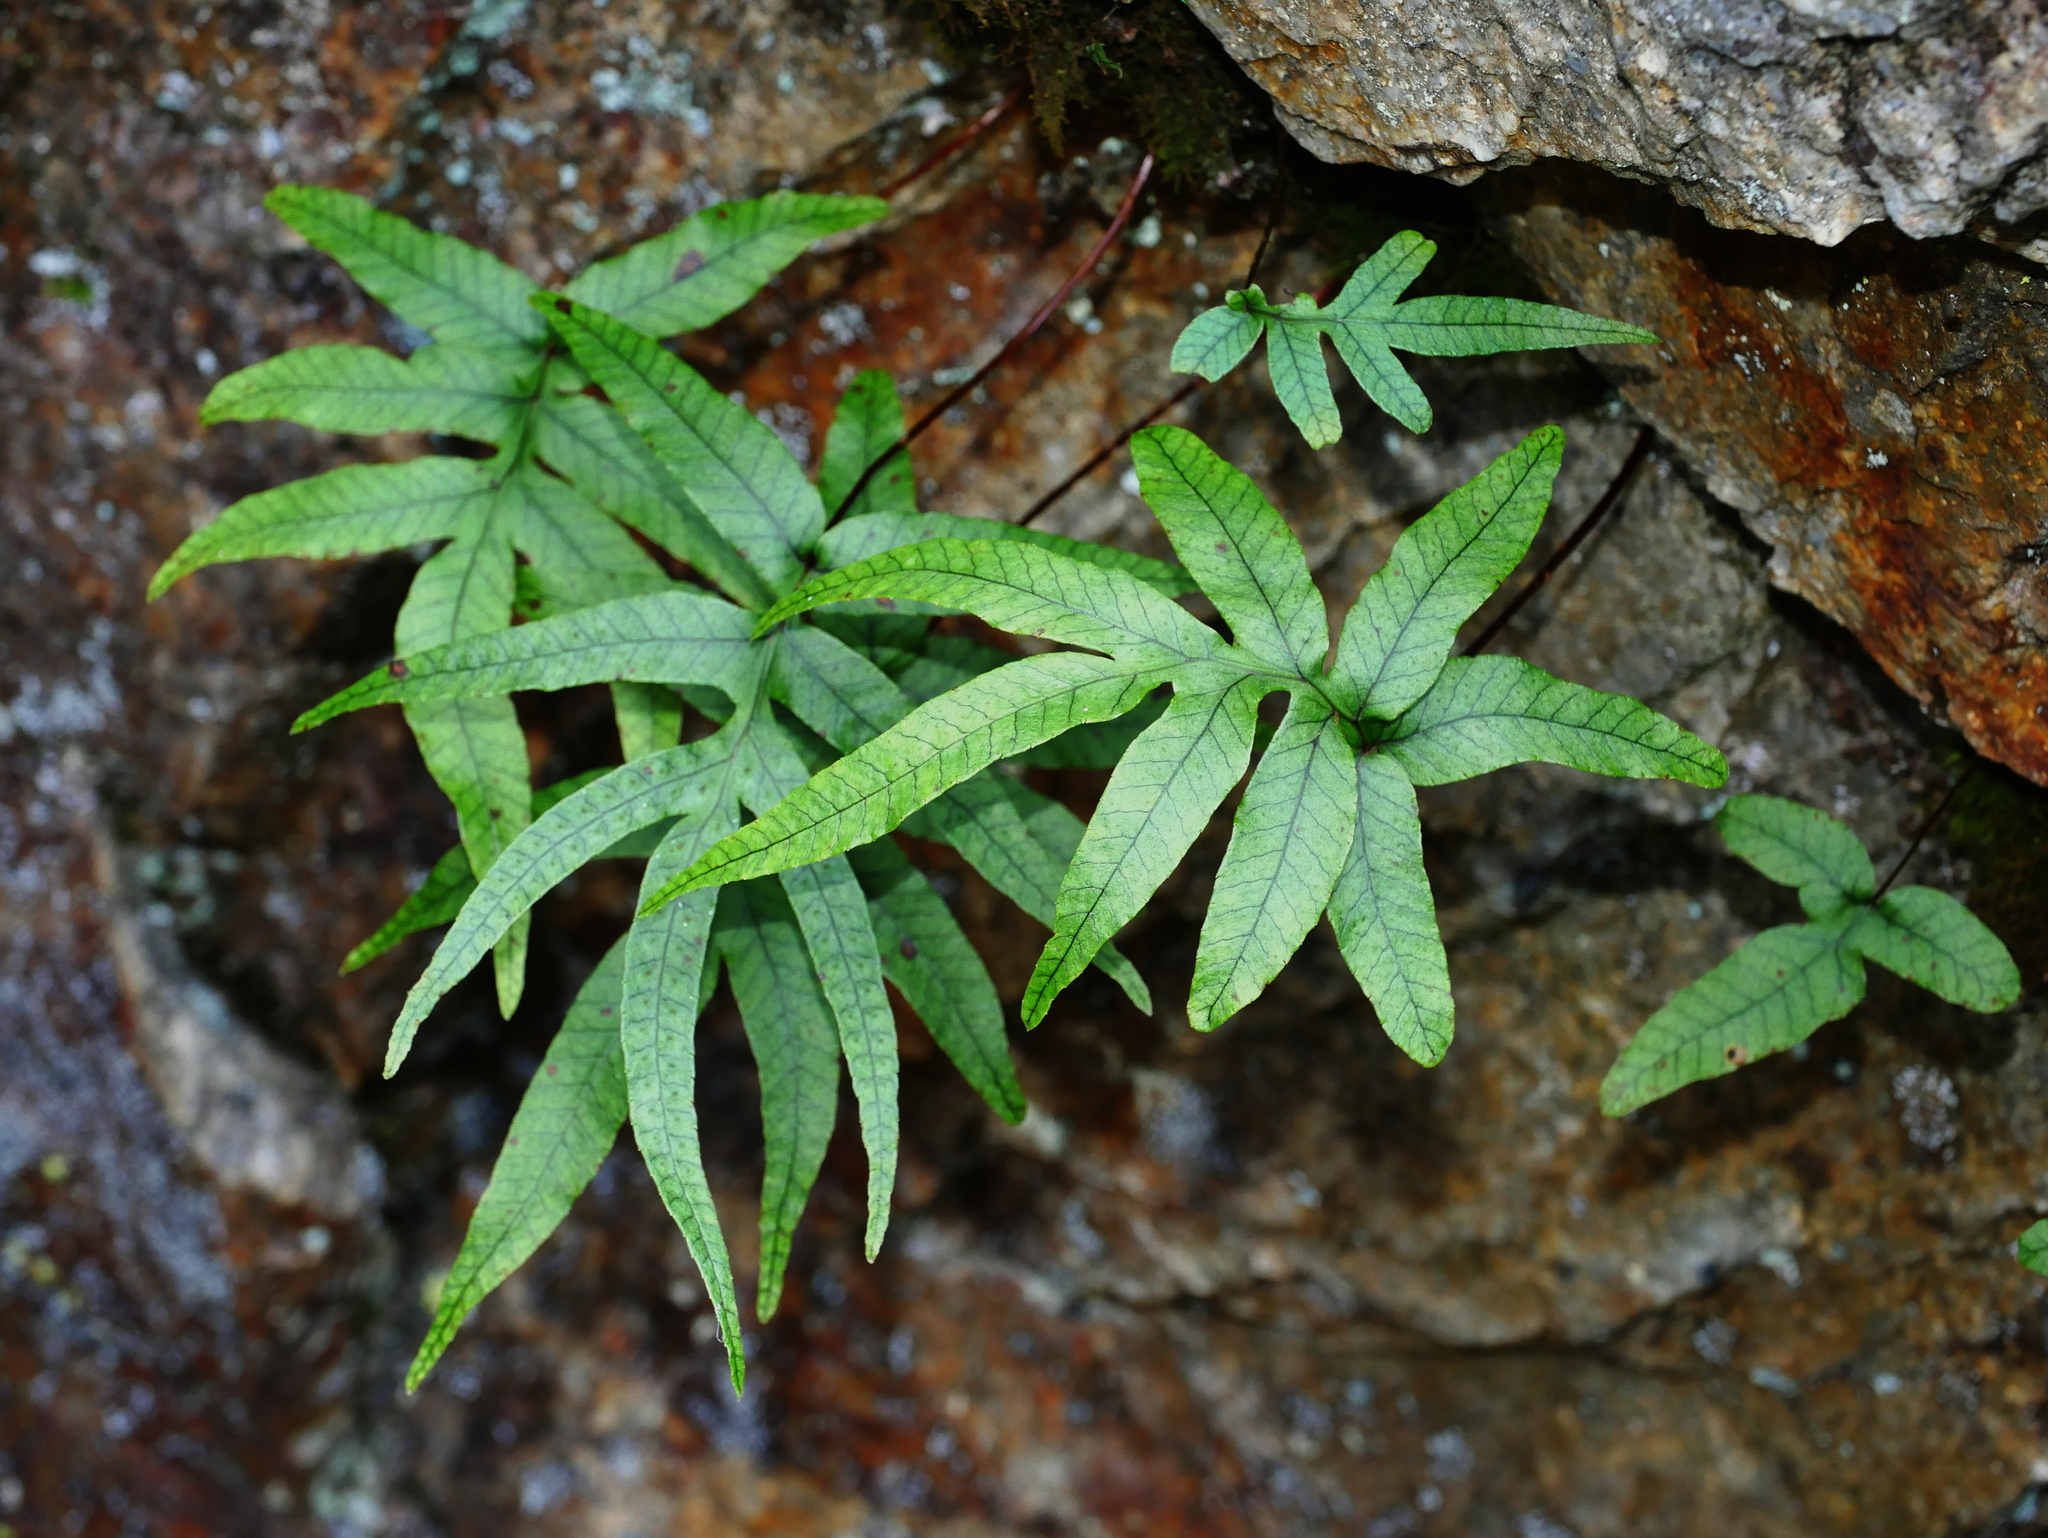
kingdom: Plantae
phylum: Tracheophyta
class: Polypodiopsida
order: Polypodiales
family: Polypodiaceae
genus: Selliguea
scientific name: Selliguea quasidivaricata
